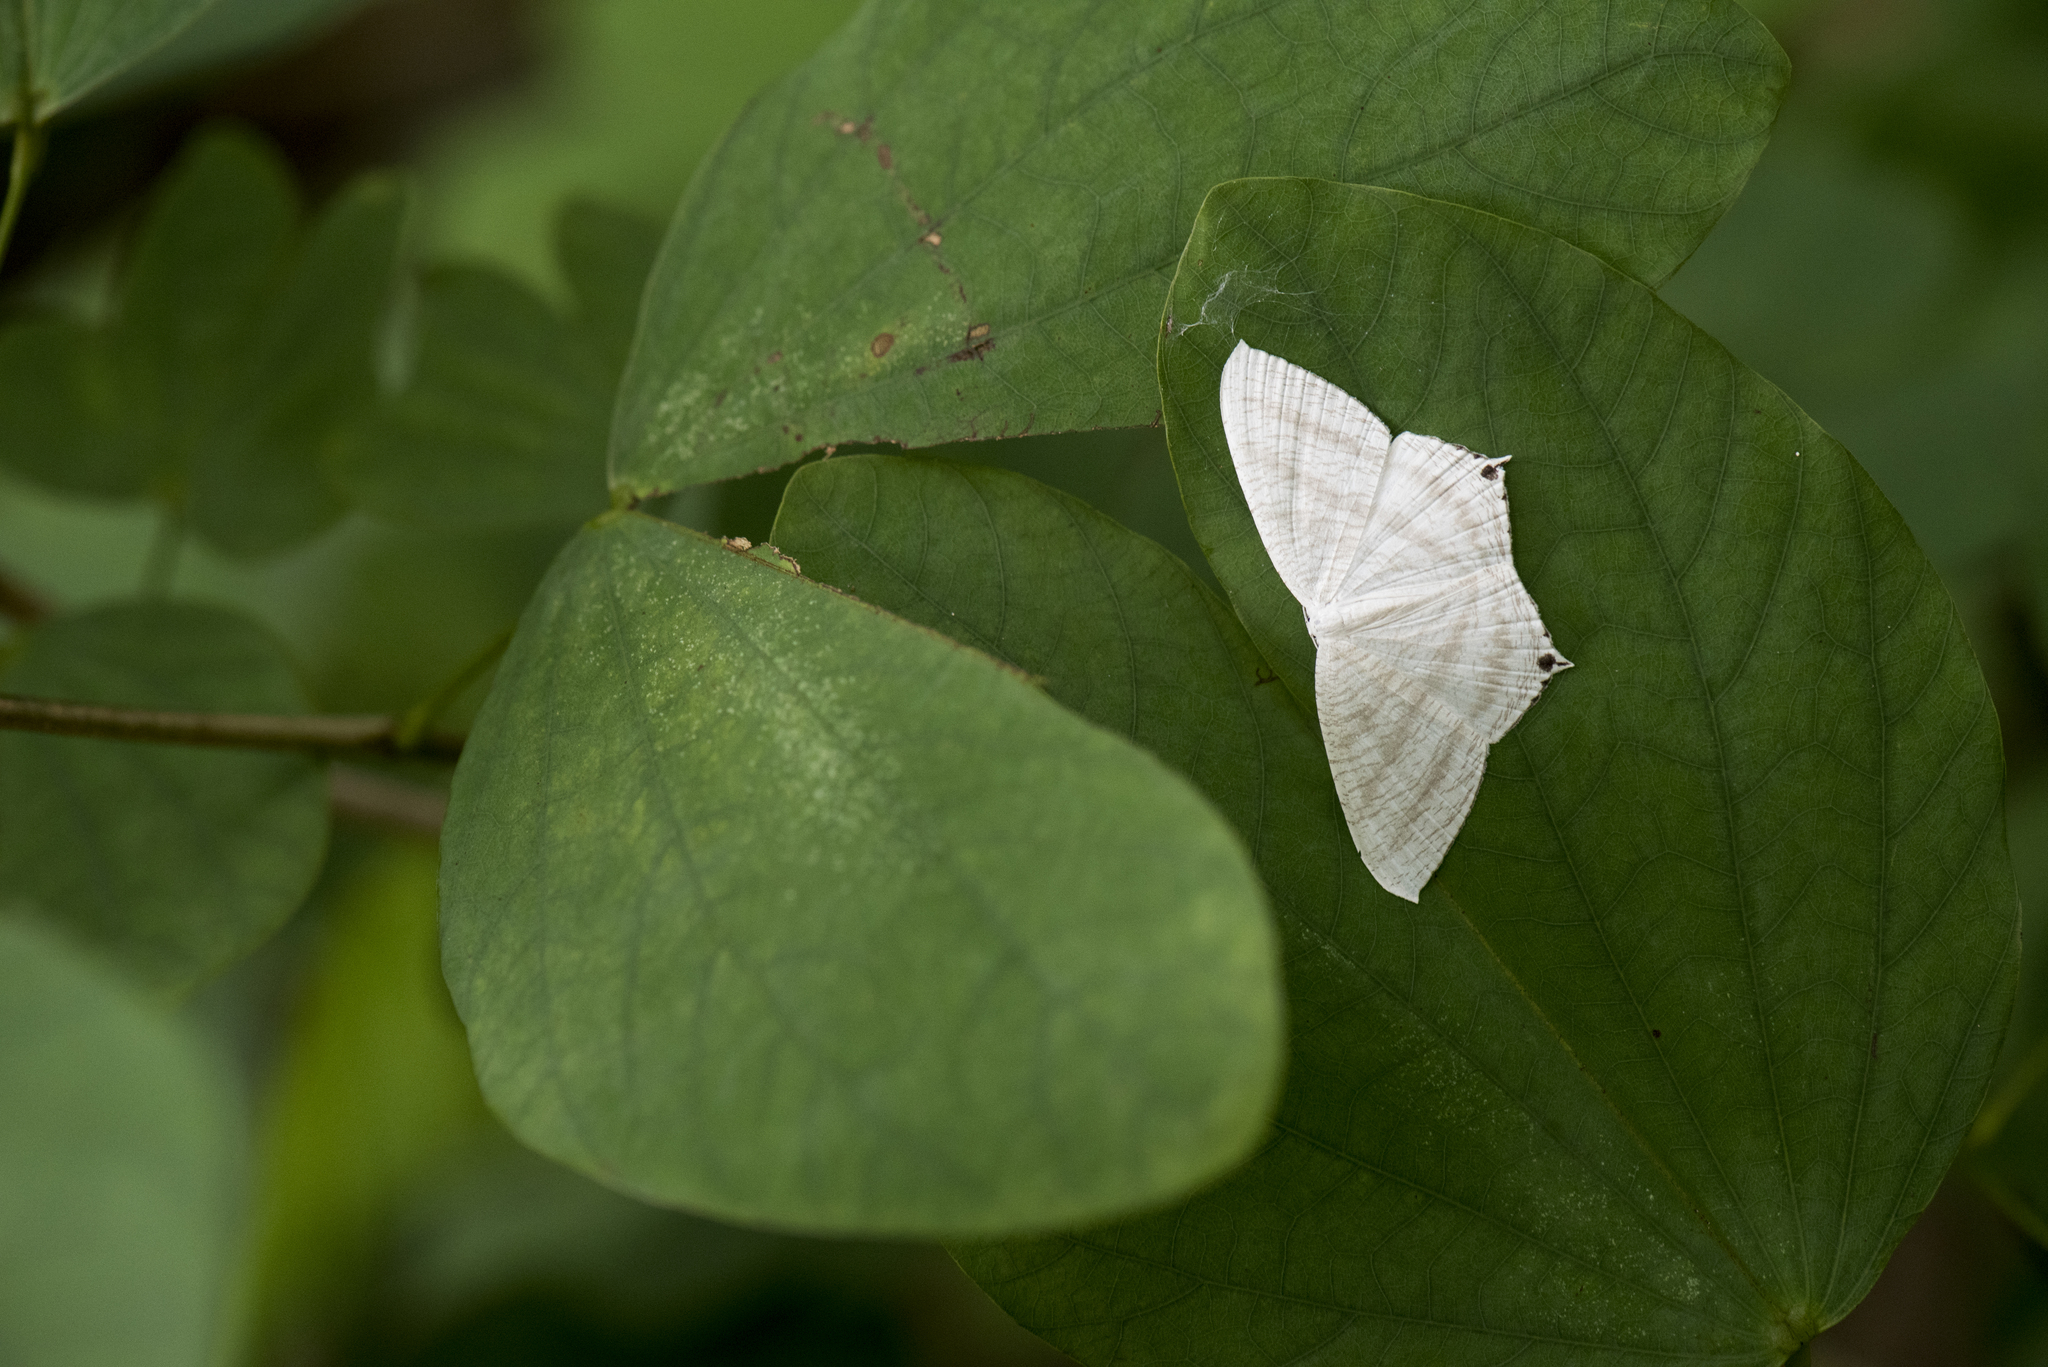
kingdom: Animalia
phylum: Arthropoda
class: Insecta
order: Lepidoptera
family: Uraniidae
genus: Micronia
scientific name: Micronia aculeata
